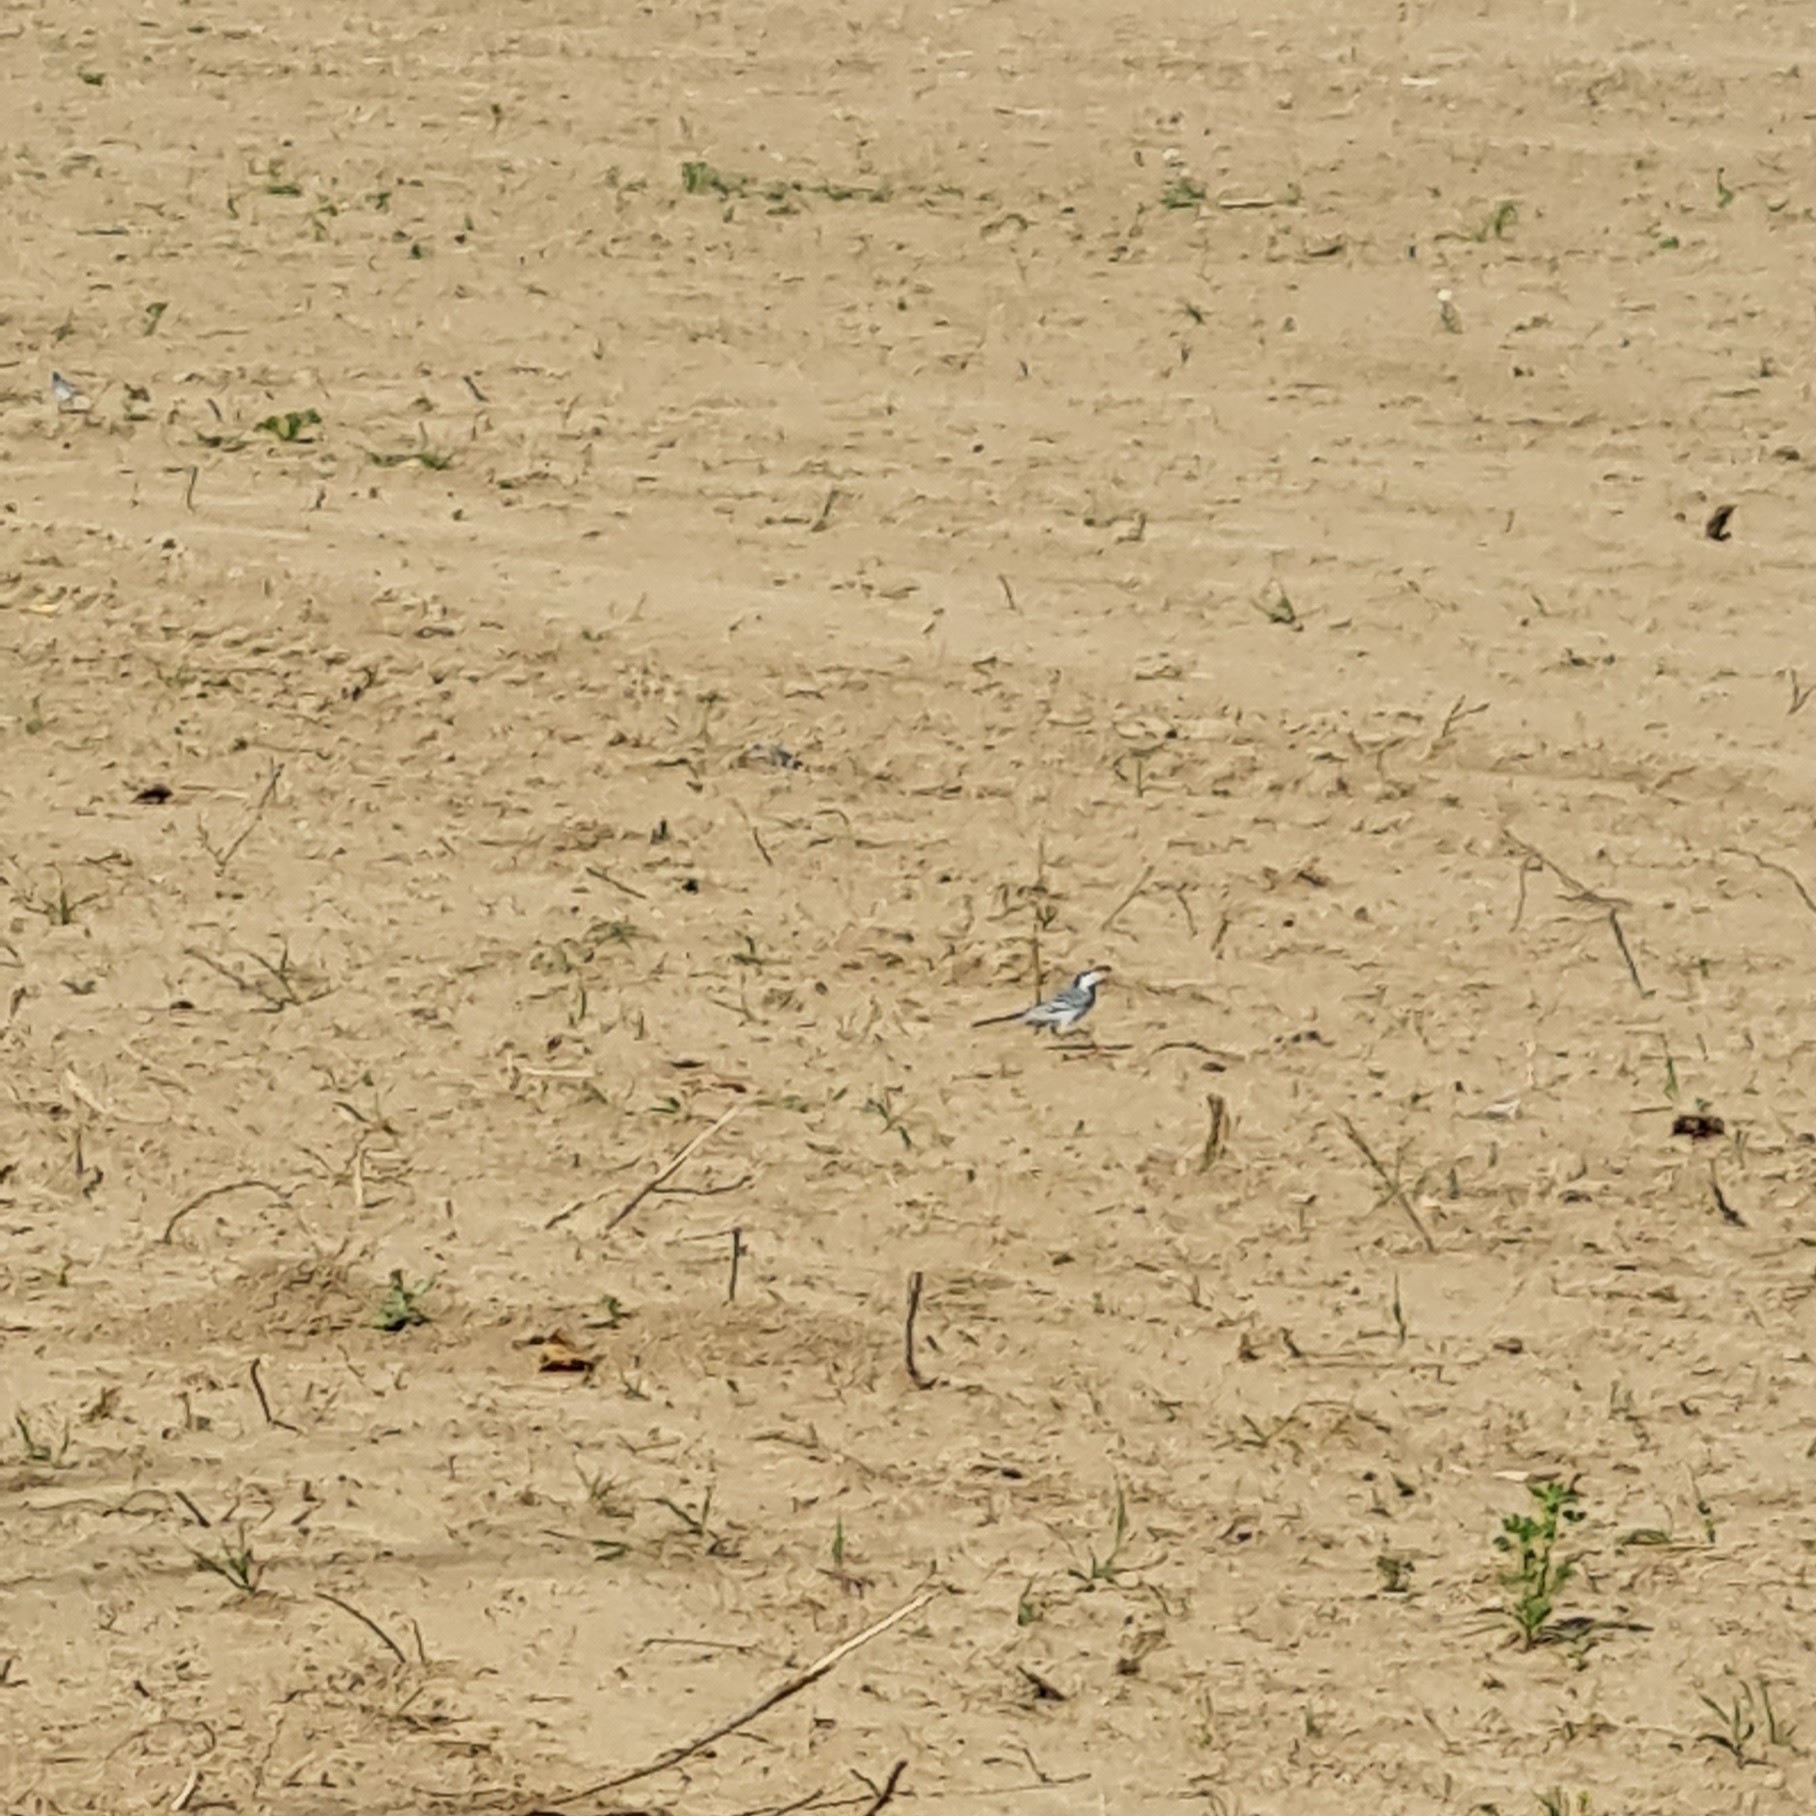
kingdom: Animalia
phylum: Chordata
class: Aves
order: Passeriformes
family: Motacillidae
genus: Motacilla
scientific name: Motacilla alba
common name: White wagtail
